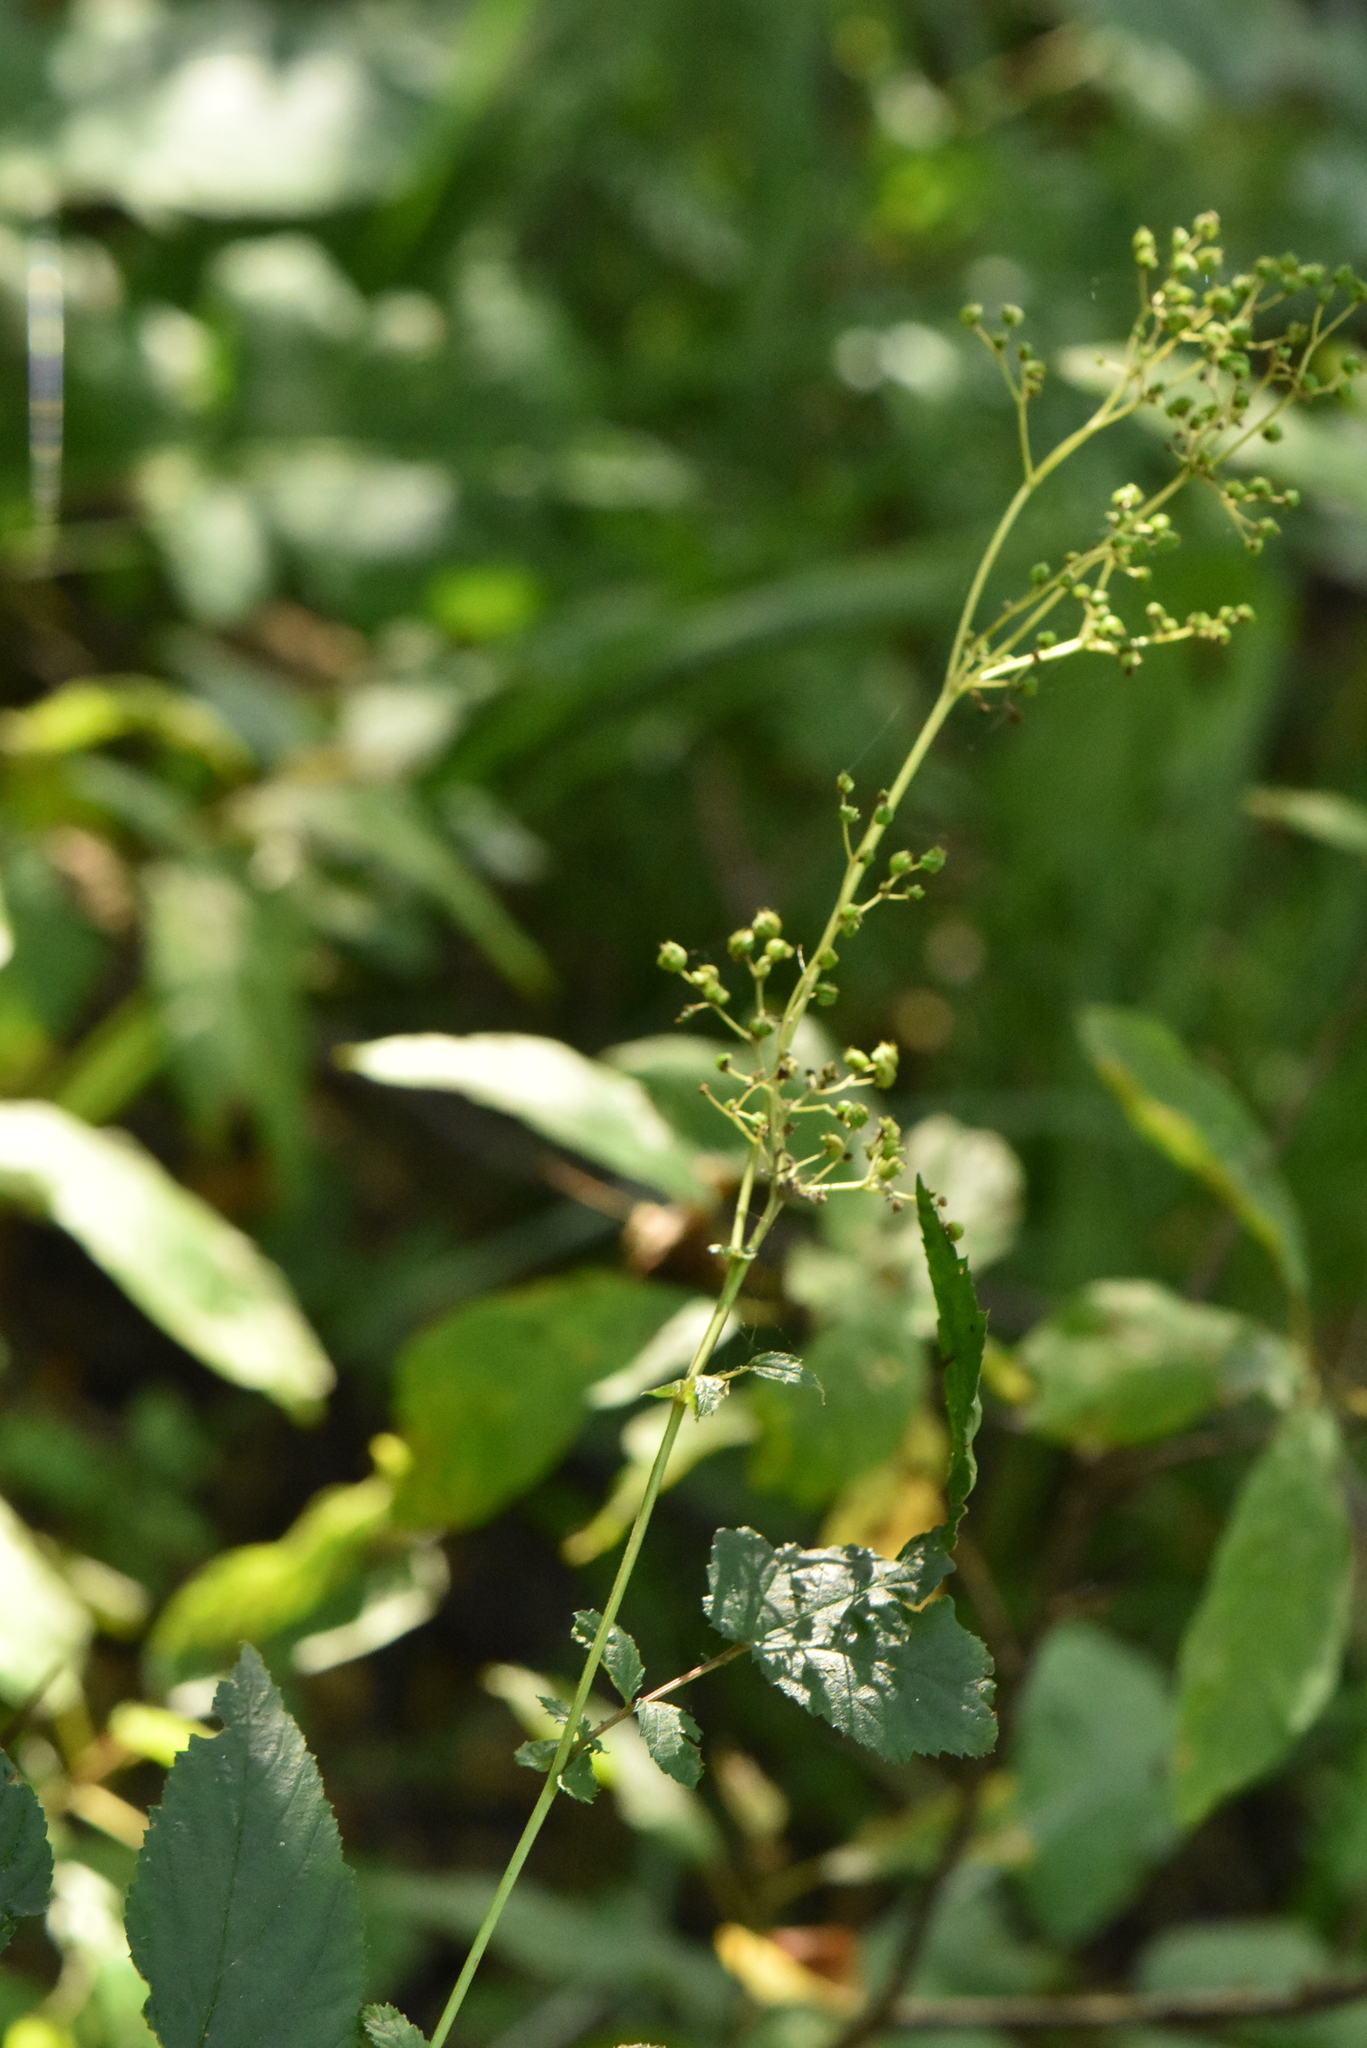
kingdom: Plantae
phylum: Tracheophyta
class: Magnoliopsida
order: Rosales
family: Rosaceae
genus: Filipendula
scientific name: Filipendula ulmaria
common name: Meadowsweet
